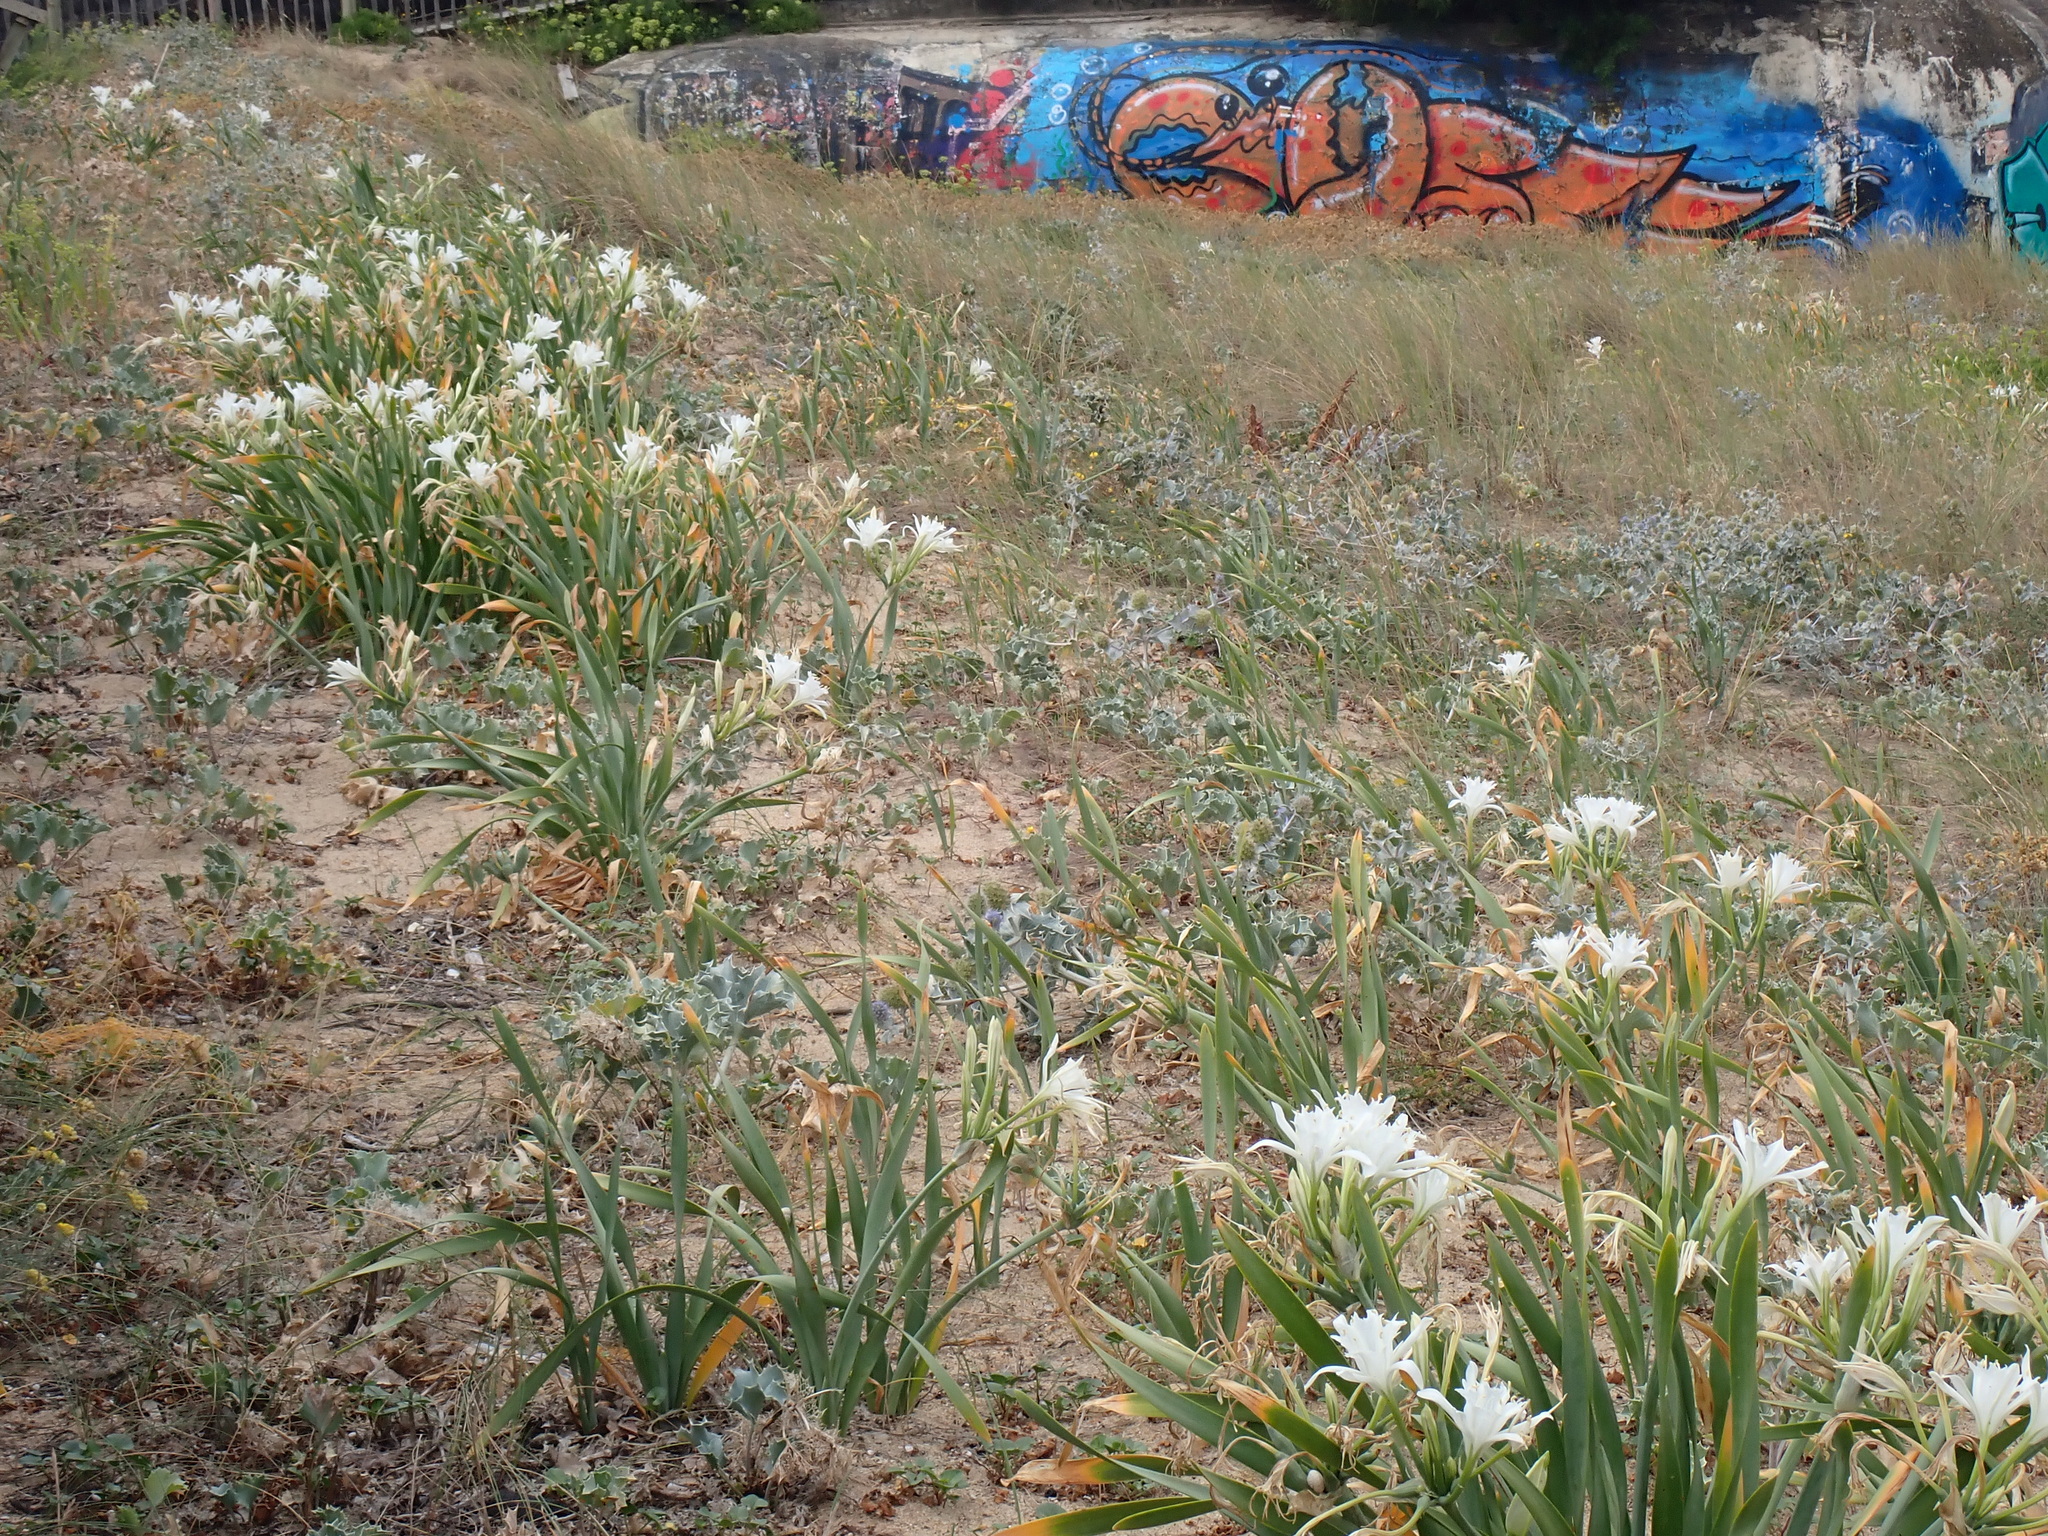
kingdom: Plantae
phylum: Tracheophyta
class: Liliopsida
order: Asparagales
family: Amaryllidaceae
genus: Pancratium
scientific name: Pancratium maritimum
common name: Sea-daffodil
